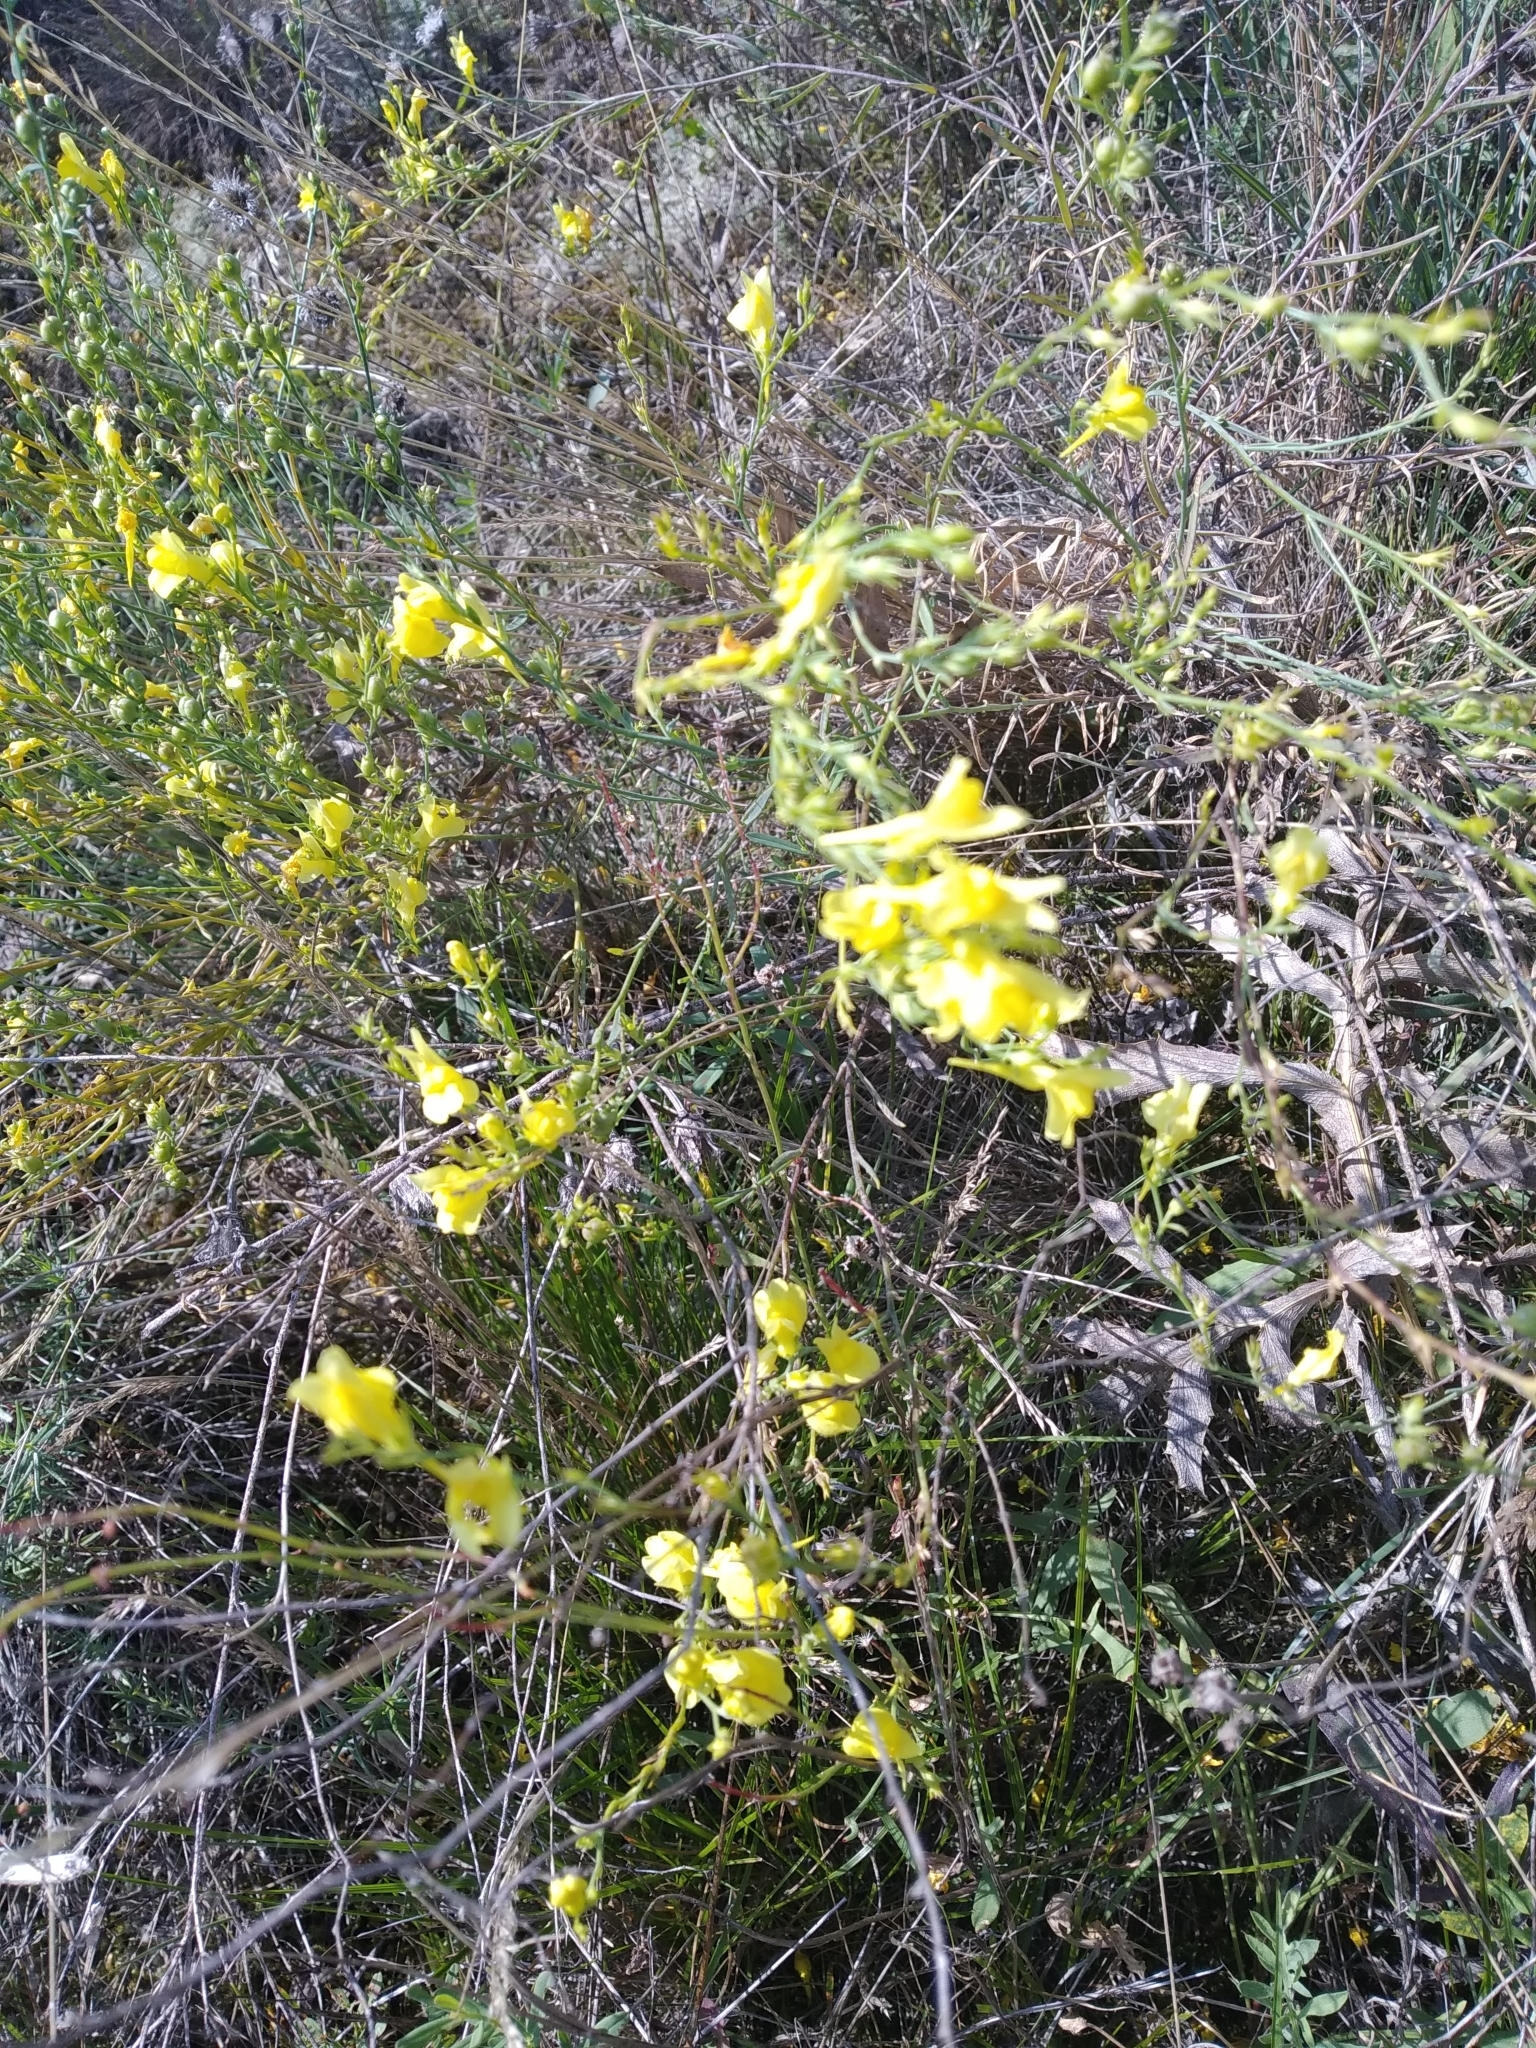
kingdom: Plantae
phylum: Tracheophyta
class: Magnoliopsida
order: Lamiales
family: Plantaginaceae
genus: Linaria
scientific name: Linaria genistifolia
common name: Broomleaf toadflax
